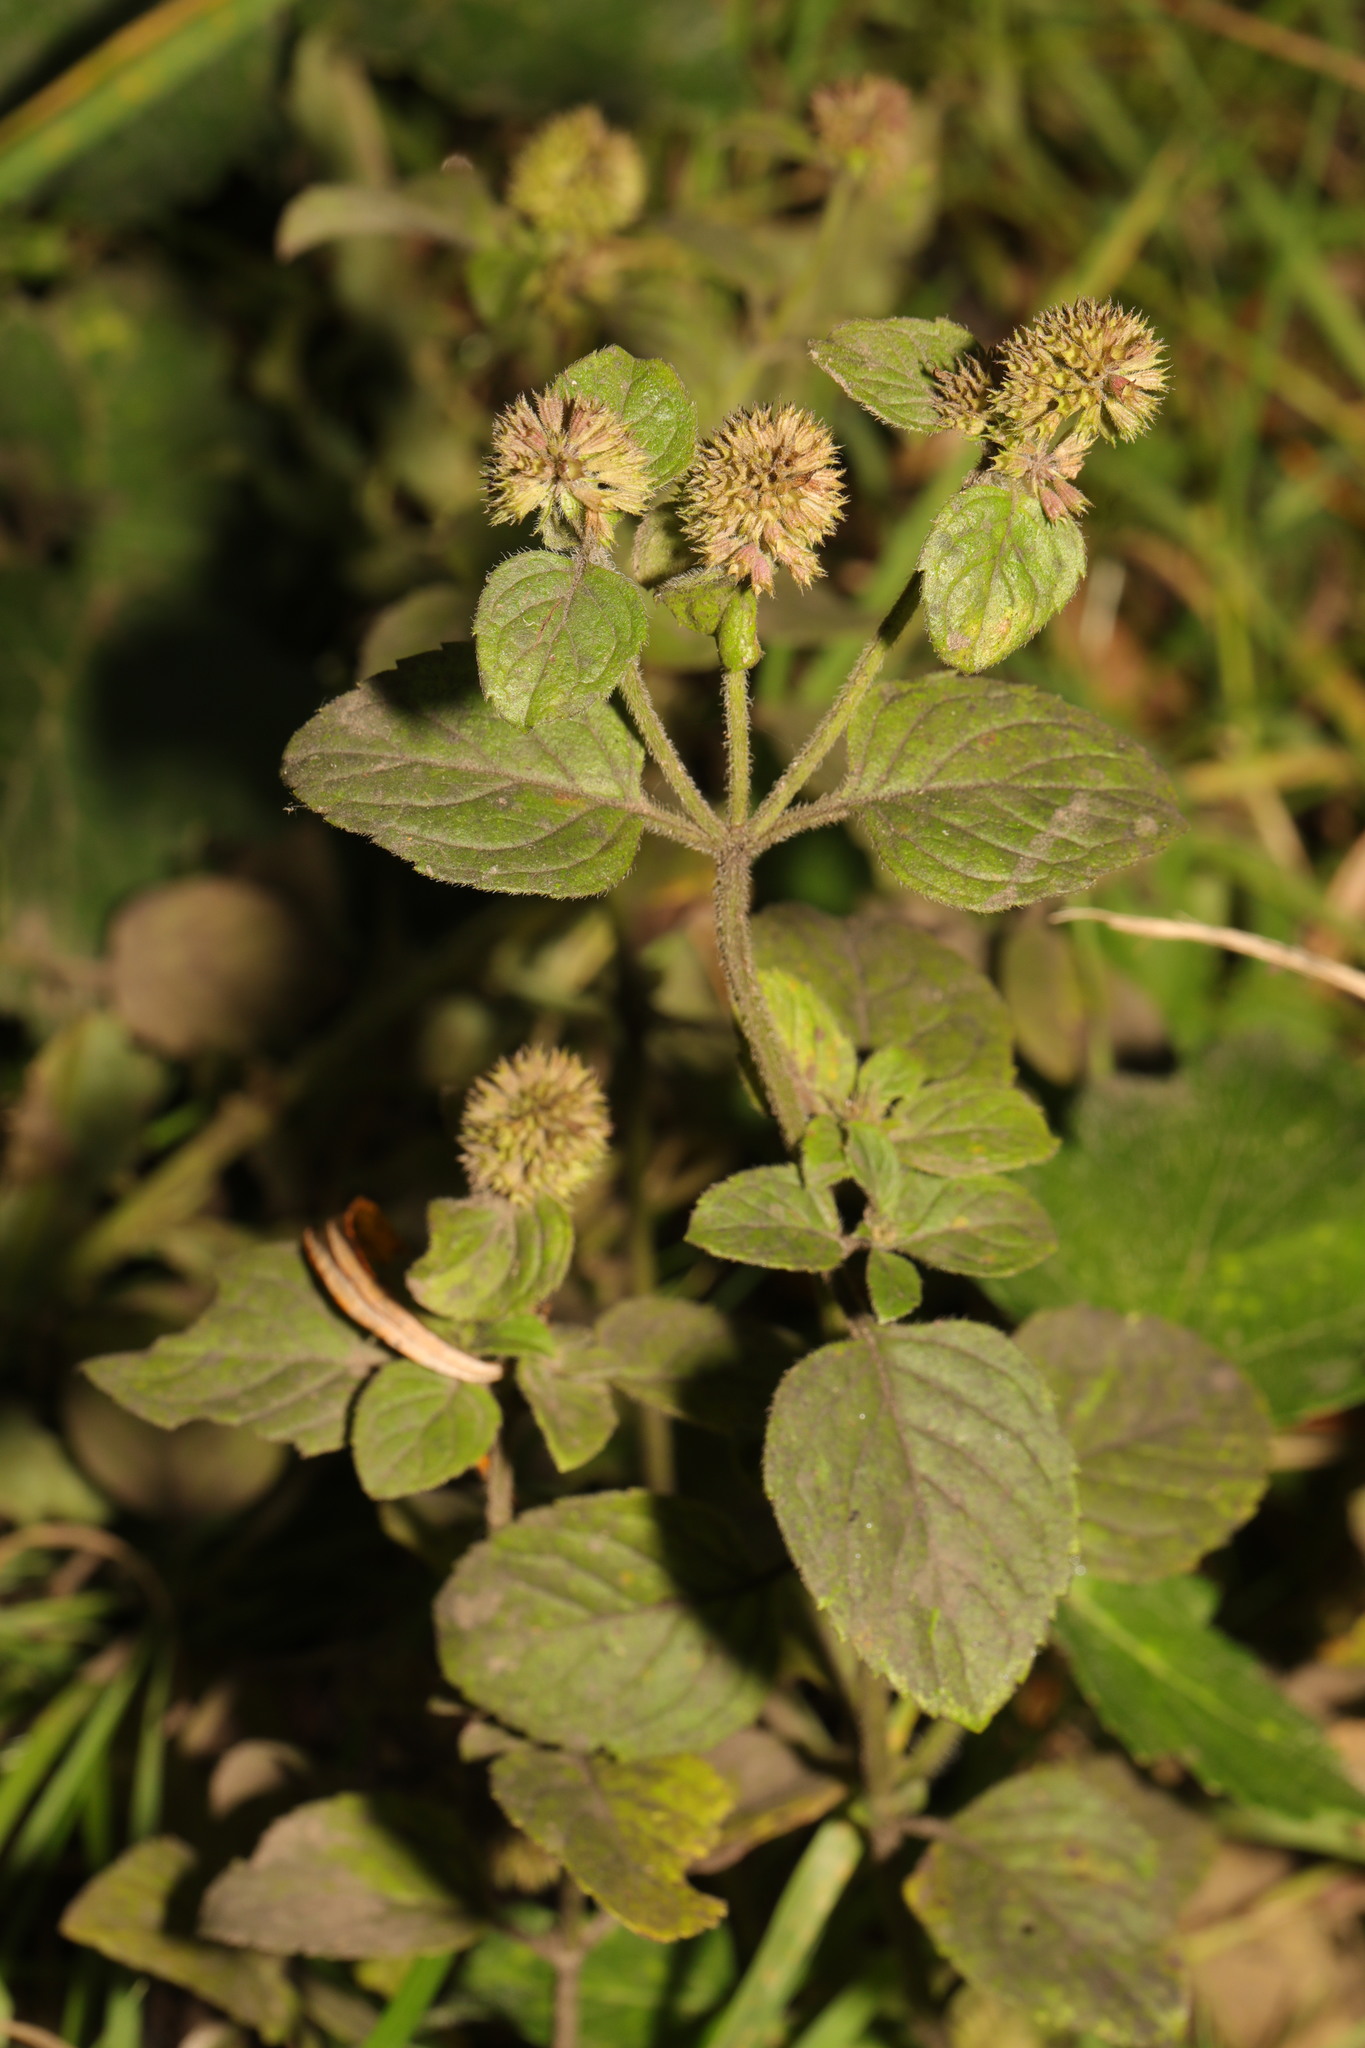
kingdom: Plantae
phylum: Tracheophyta
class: Magnoliopsida
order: Lamiales
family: Lamiaceae
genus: Mentha
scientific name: Mentha aquatica
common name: Water mint
